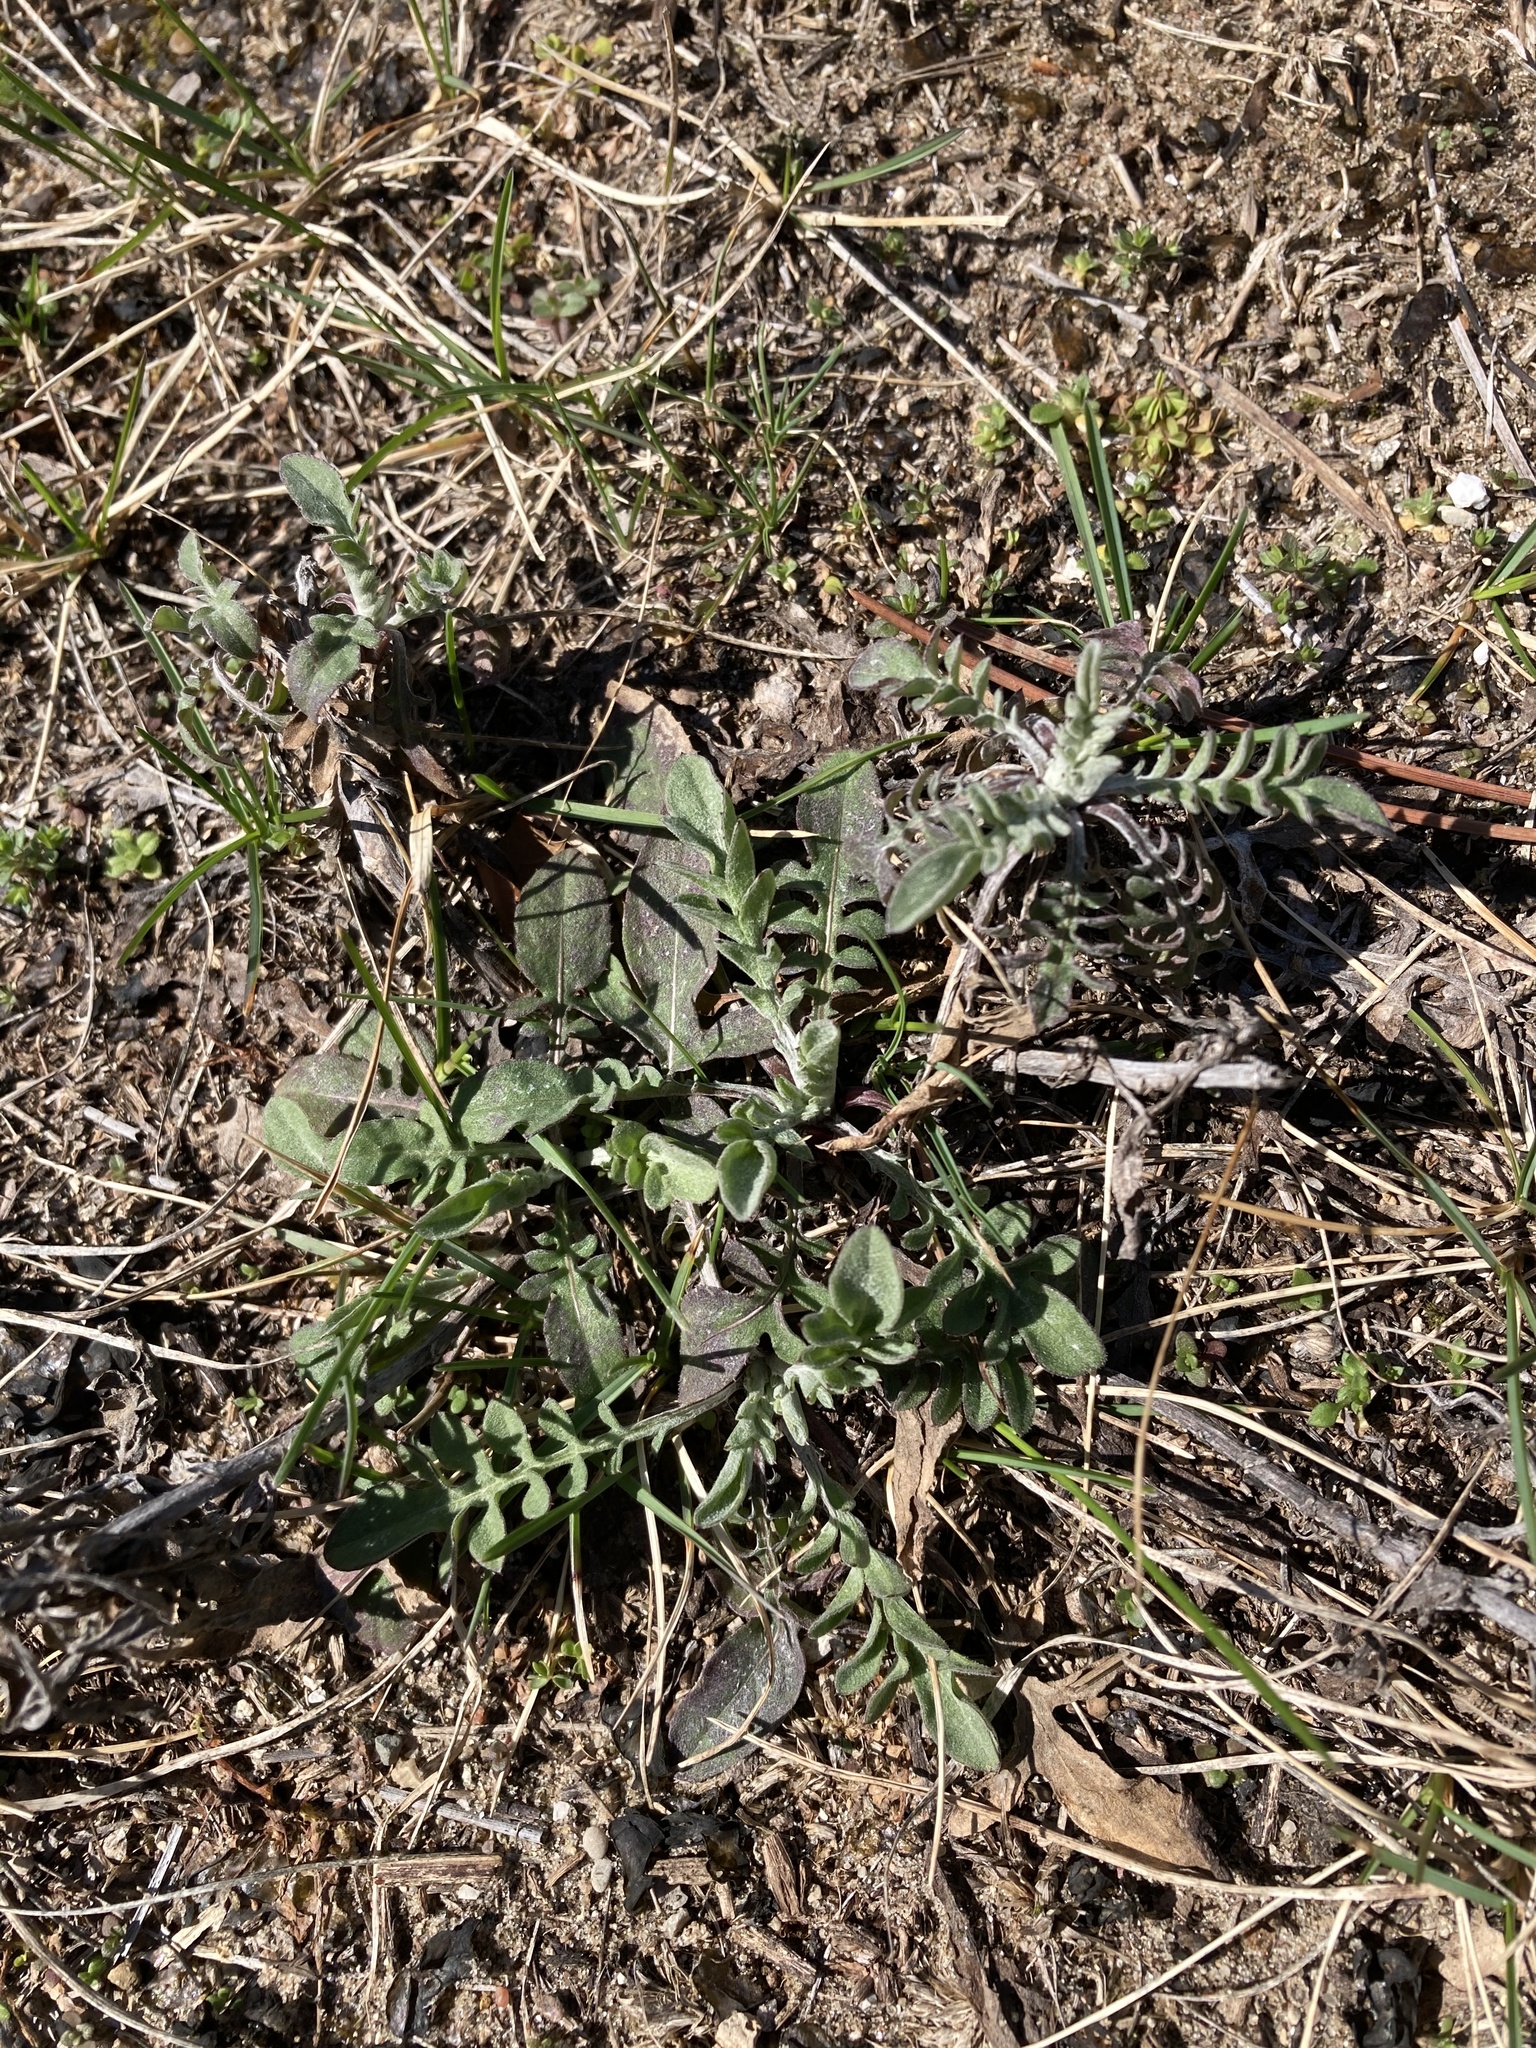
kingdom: Plantae
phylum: Tracheophyta
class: Magnoliopsida
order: Asterales
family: Asteraceae
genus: Centaurea
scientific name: Centaurea stoebe
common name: Spotted knapweed
